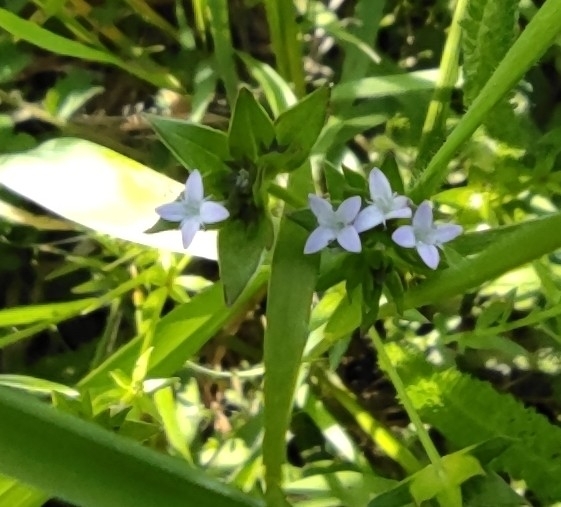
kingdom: Plantae
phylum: Tracheophyta
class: Magnoliopsida
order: Gentianales
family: Rubiaceae
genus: Sherardia
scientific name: Sherardia arvensis
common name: Field madder
